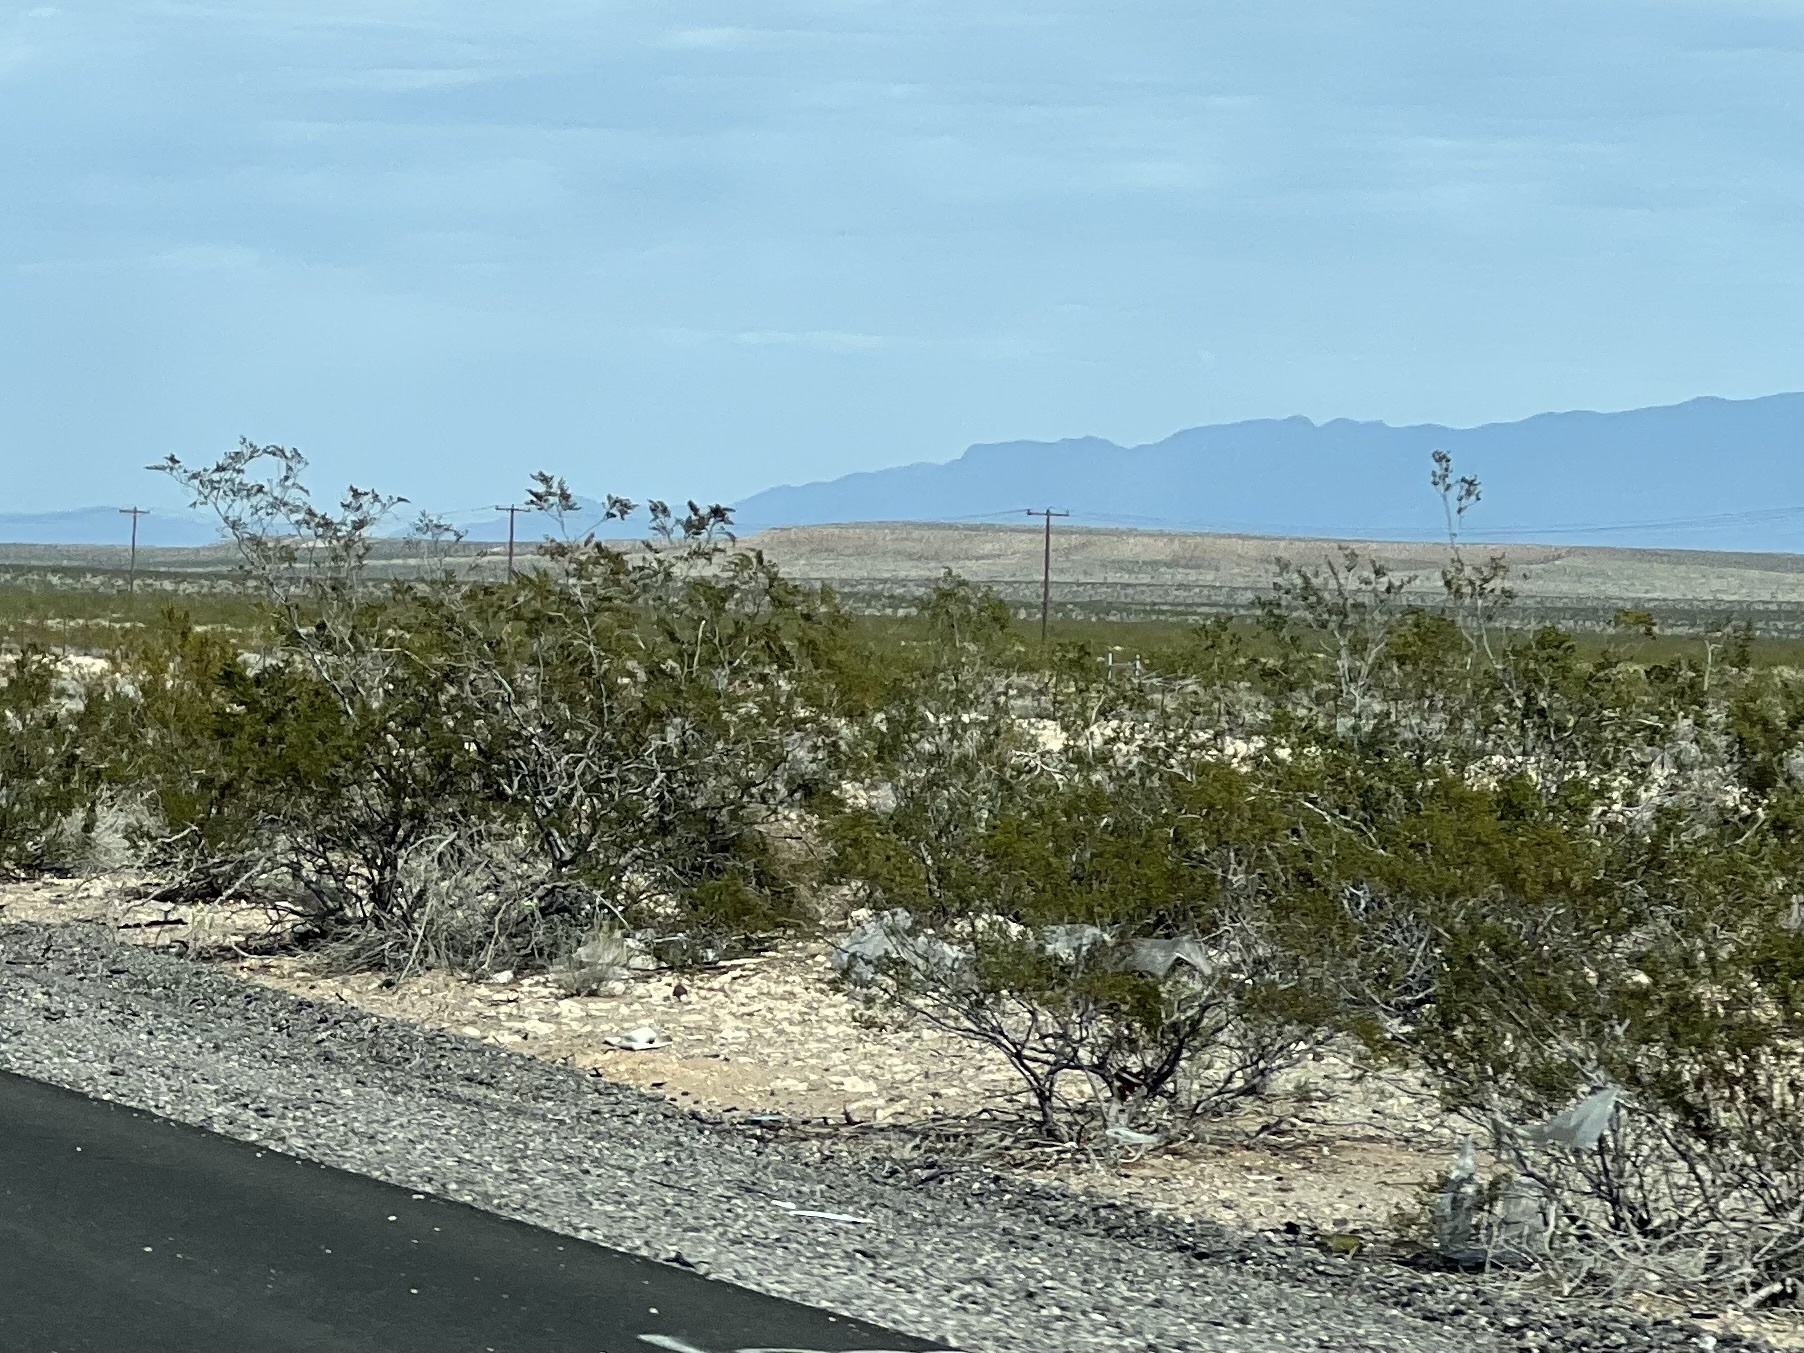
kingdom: Plantae
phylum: Tracheophyta
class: Magnoliopsida
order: Zygophyllales
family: Zygophyllaceae
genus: Larrea
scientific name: Larrea tridentata
